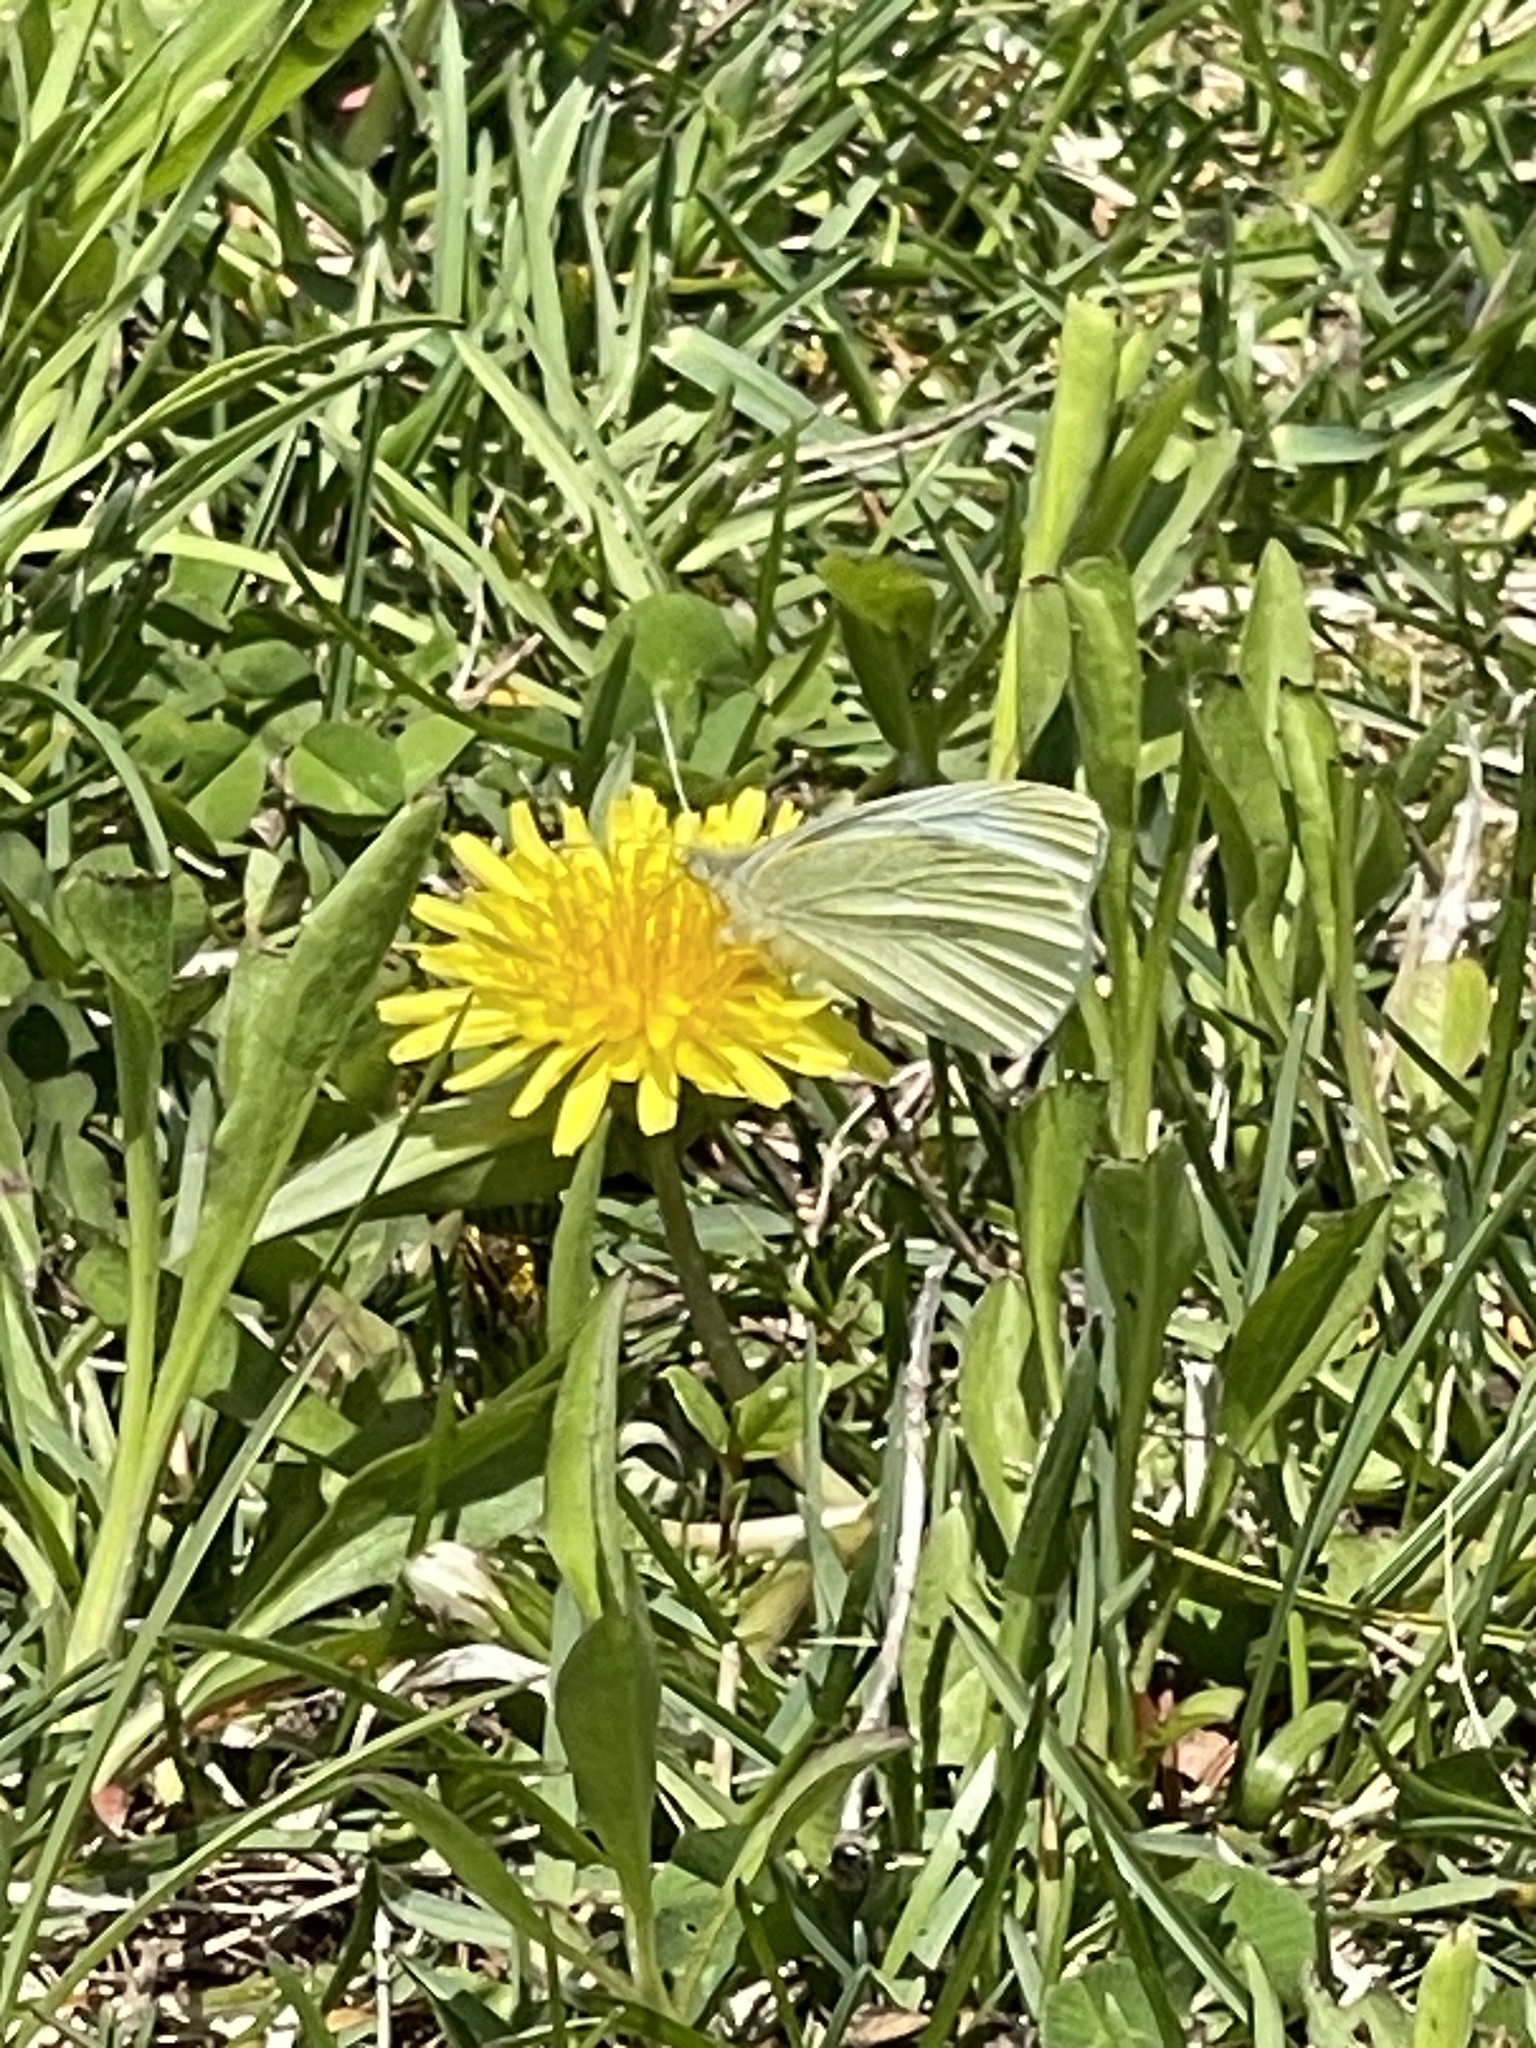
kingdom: Animalia
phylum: Arthropoda
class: Insecta
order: Lepidoptera
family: Pieridae
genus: Pieris
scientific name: Pieris rapae
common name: Small white
